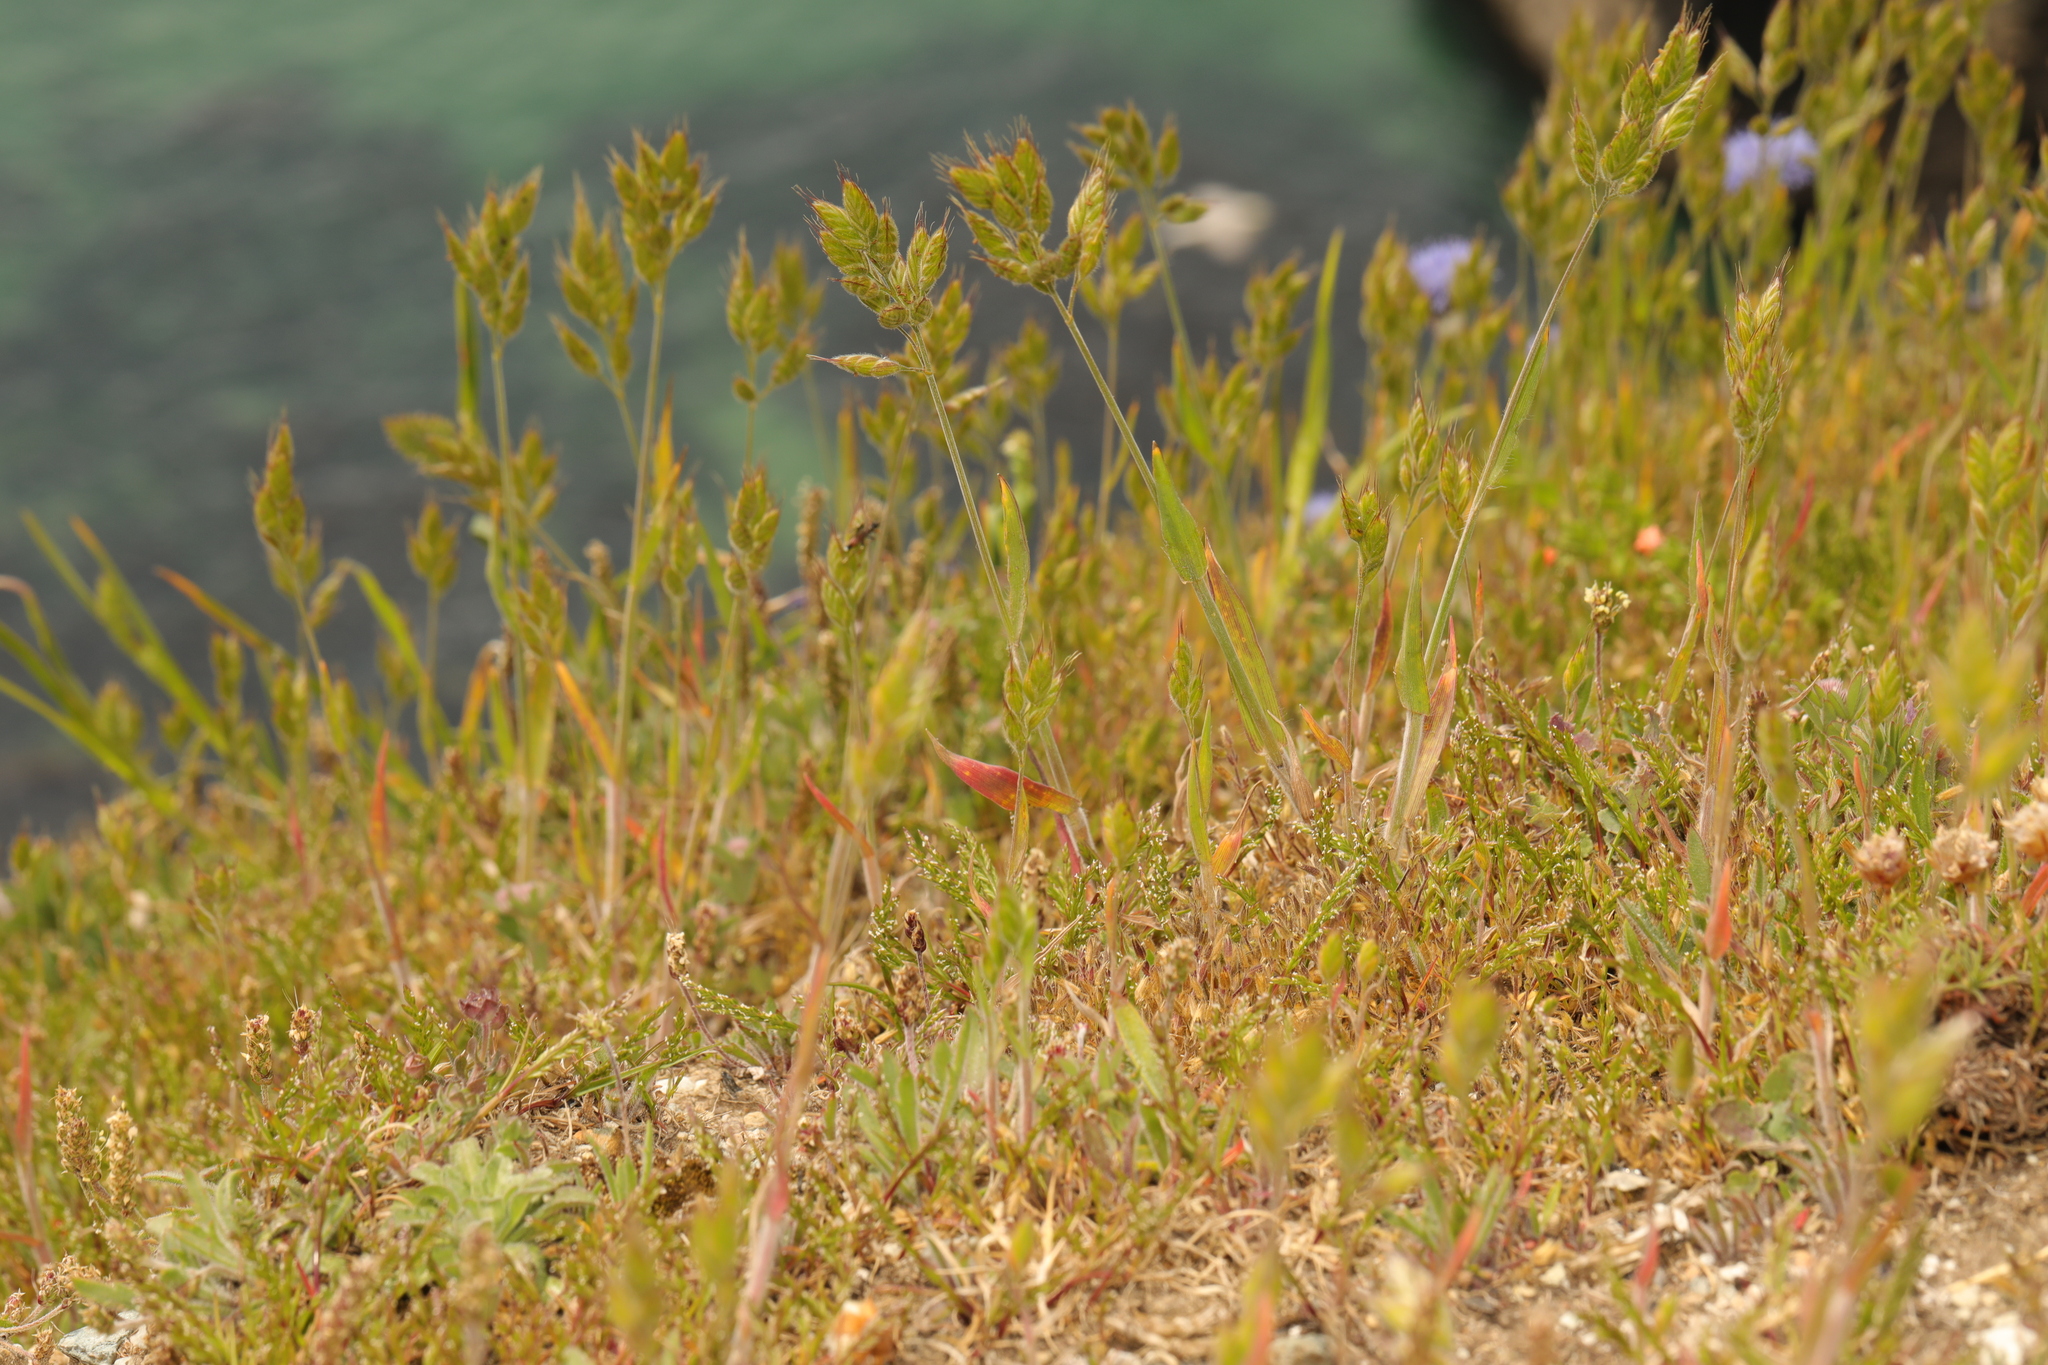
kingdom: Plantae
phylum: Tracheophyta
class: Liliopsida
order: Poales
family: Poaceae
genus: Bromus
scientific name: Bromus hordeaceus
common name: Soft brome
